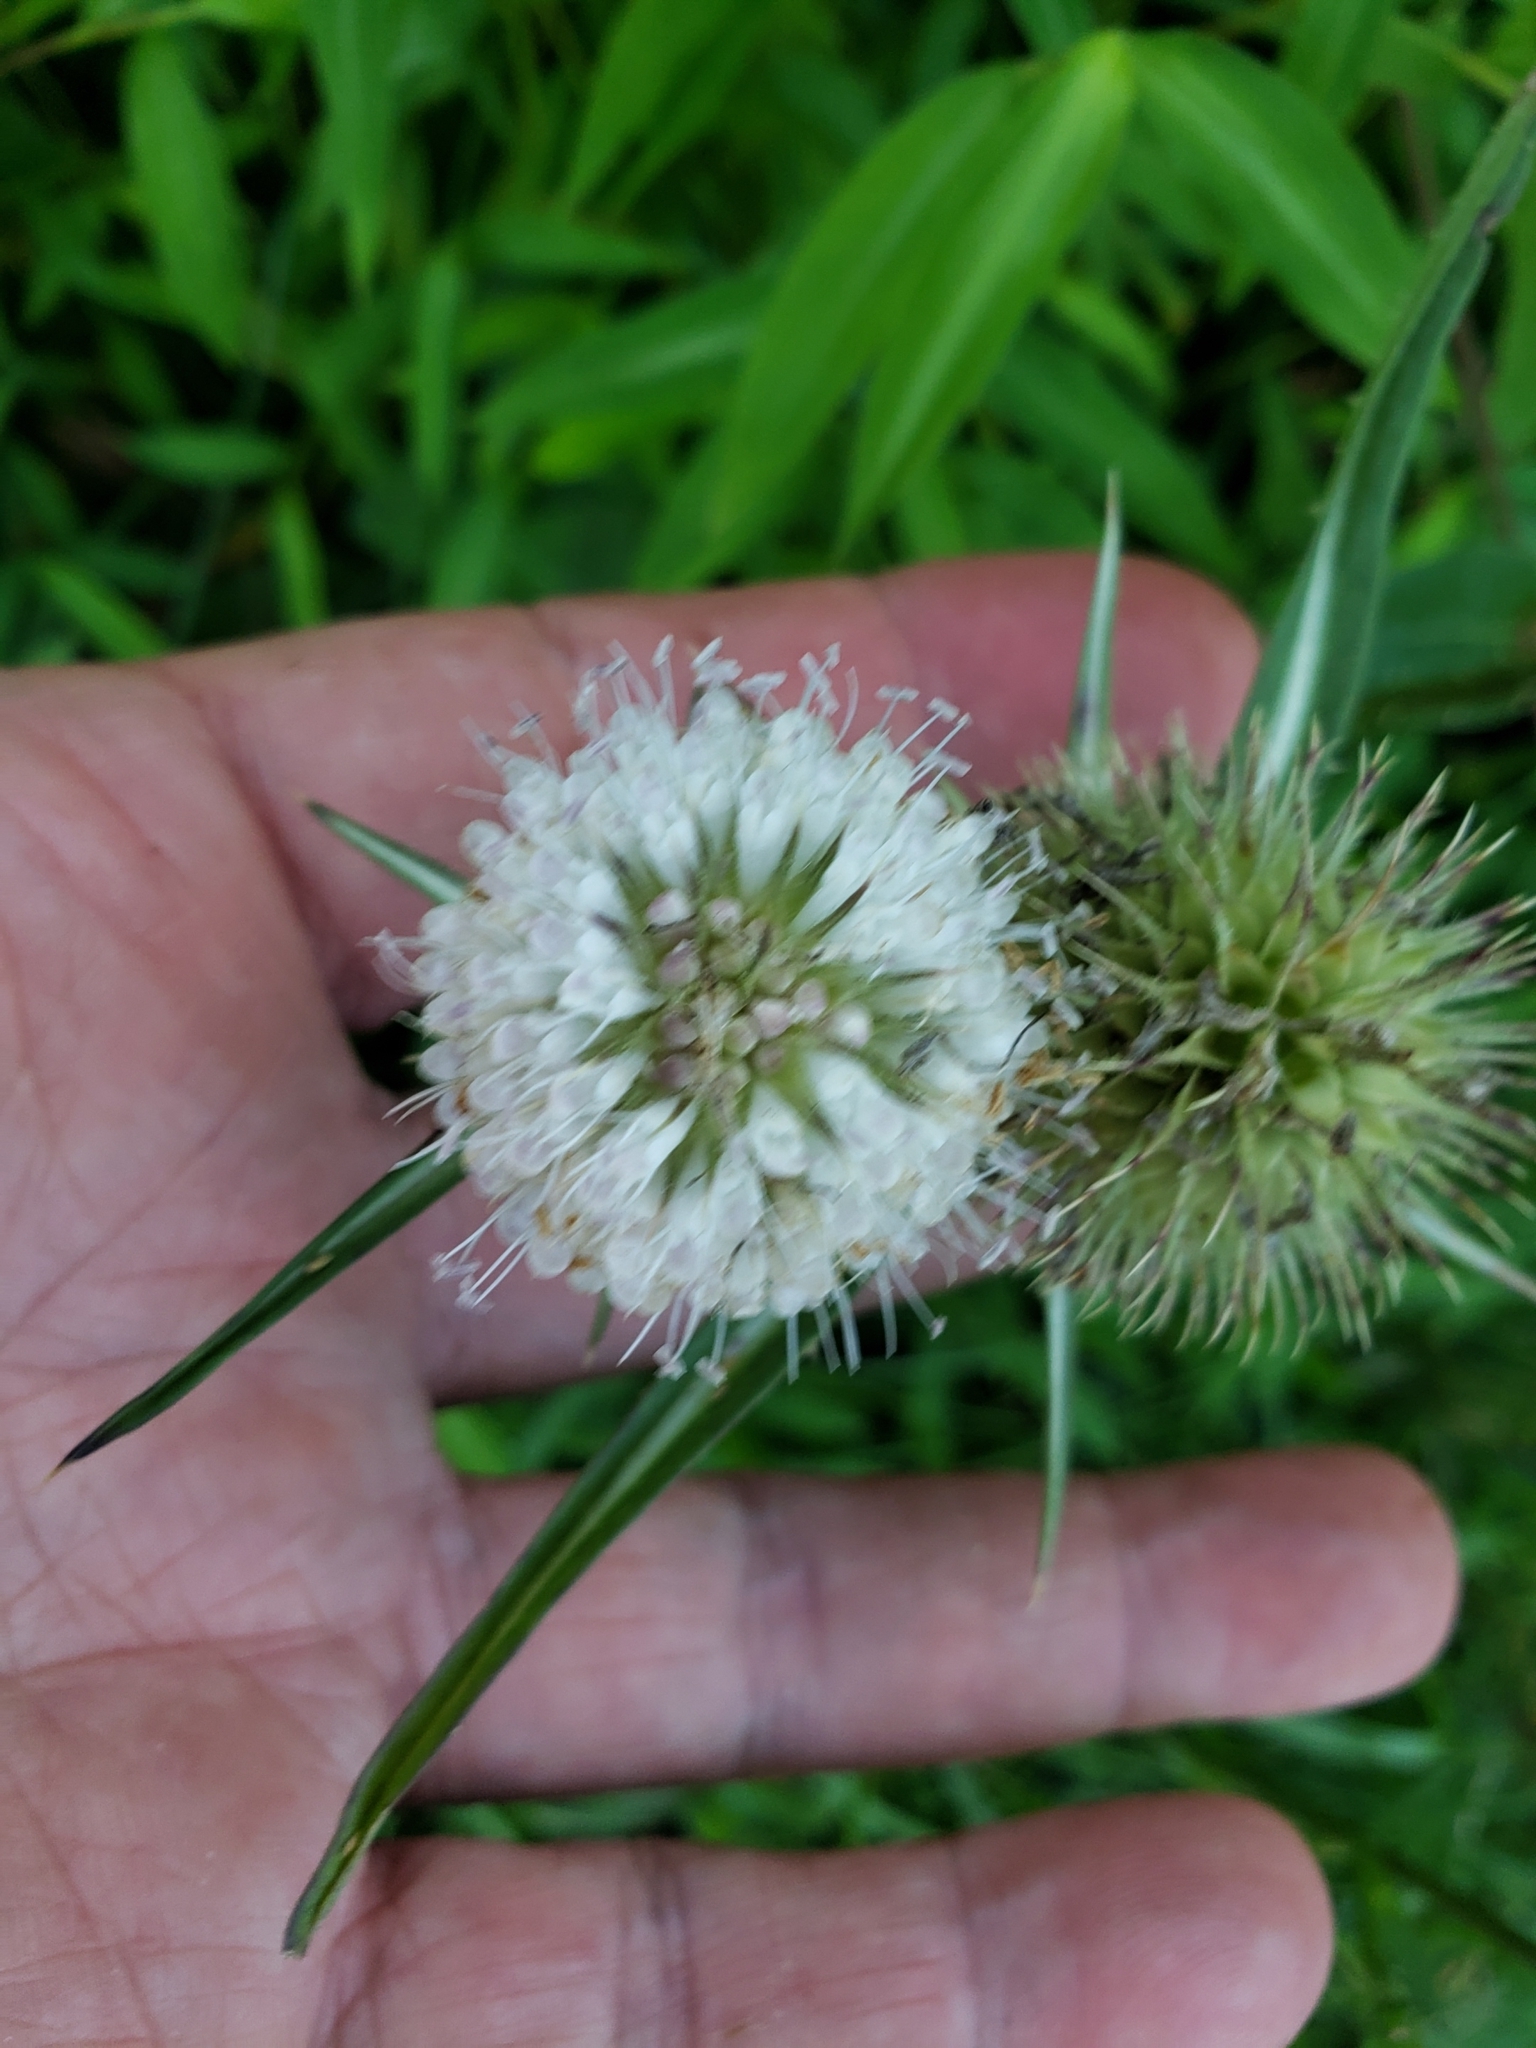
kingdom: Plantae
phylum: Tracheophyta
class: Magnoliopsida
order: Dipsacales
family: Caprifoliaceae
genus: Dipsacus
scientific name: Dipsacus laciniatus
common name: Cut-leaved teasel
